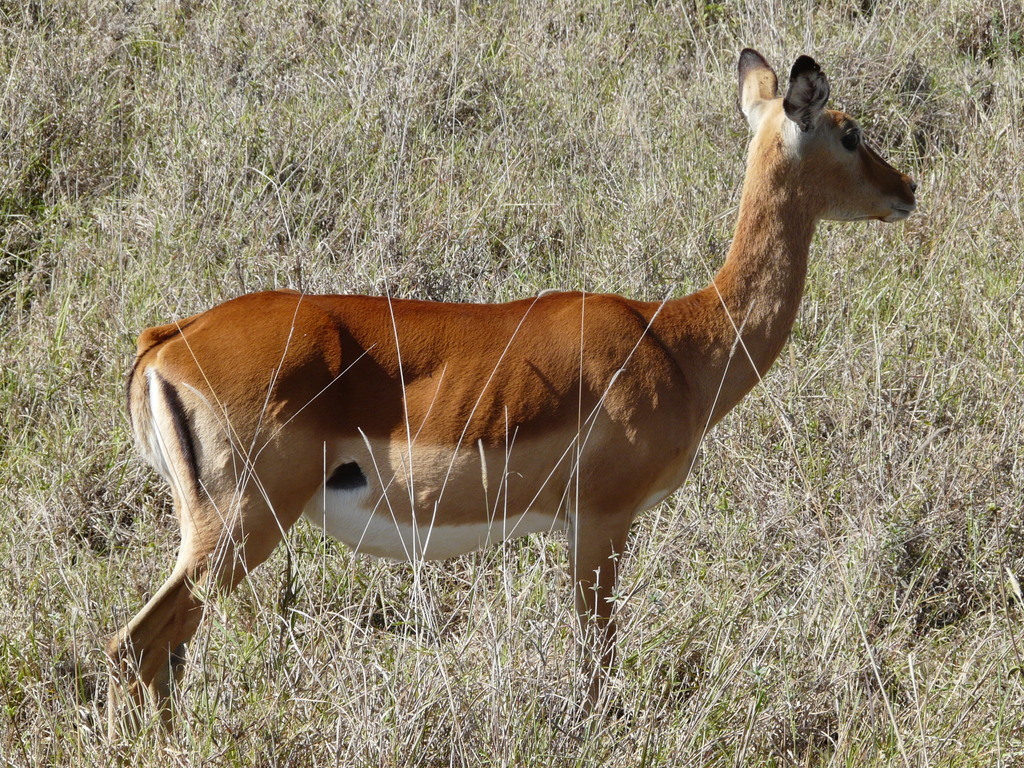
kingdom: Animalia
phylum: Chordata
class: Mammalia
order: Artiodactyla
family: Bovidae
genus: Aepyceros
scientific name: Aepyceros melampus
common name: Impala
